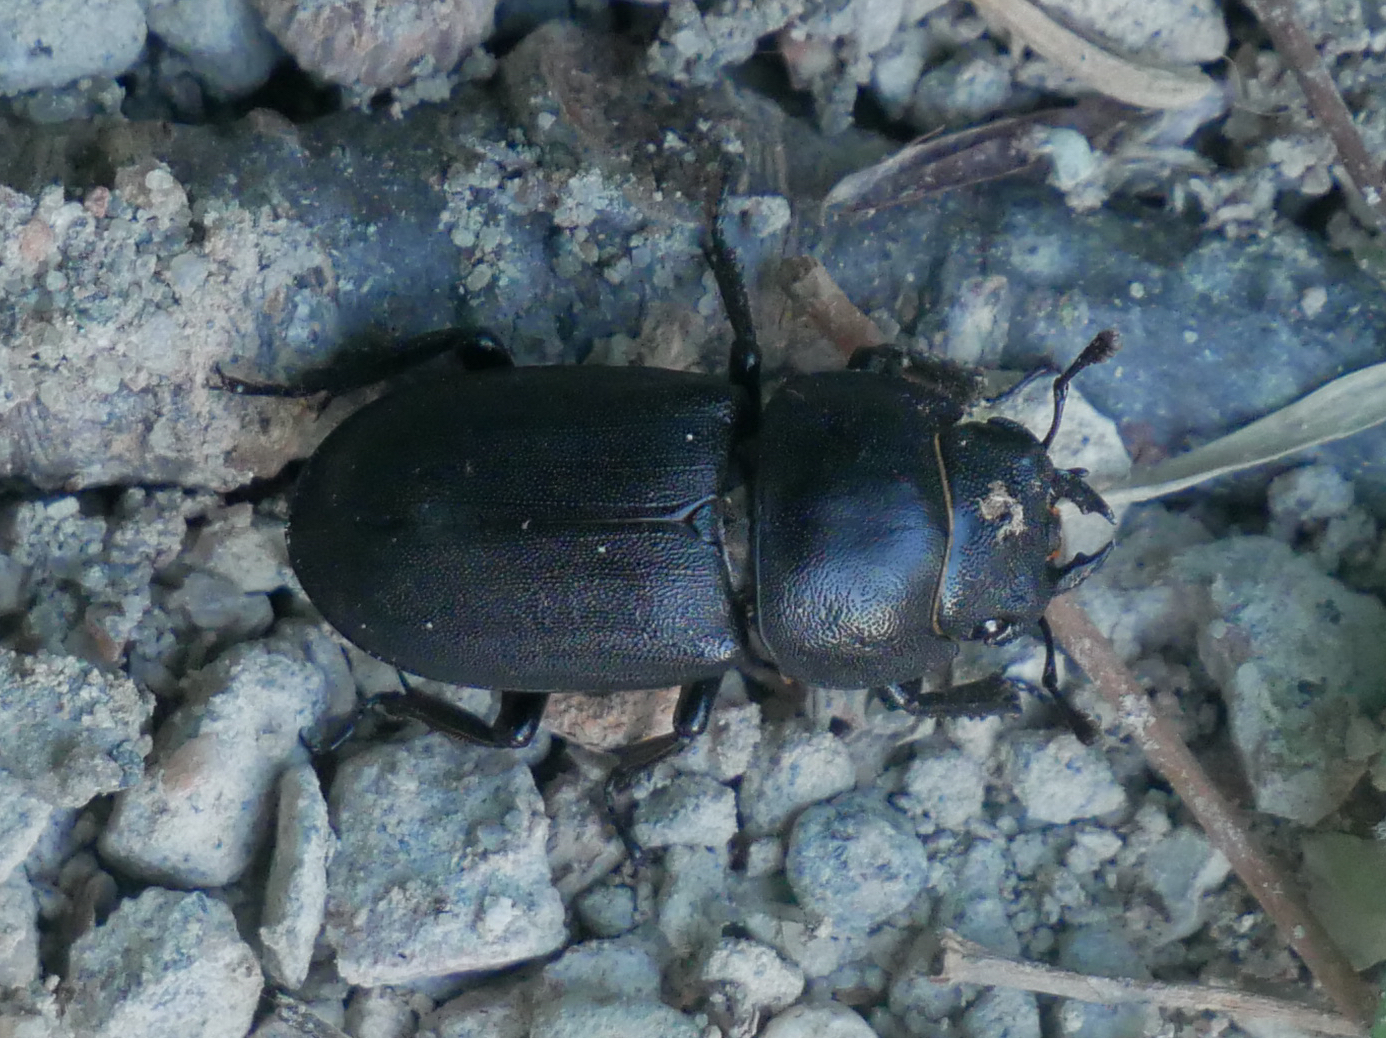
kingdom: Animalia
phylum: Arthropoda
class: Insecta
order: Coleoptera
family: Lucanidae
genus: Dorcus
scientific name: Dorcus parallelipipedus
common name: Lesser stag beetle
